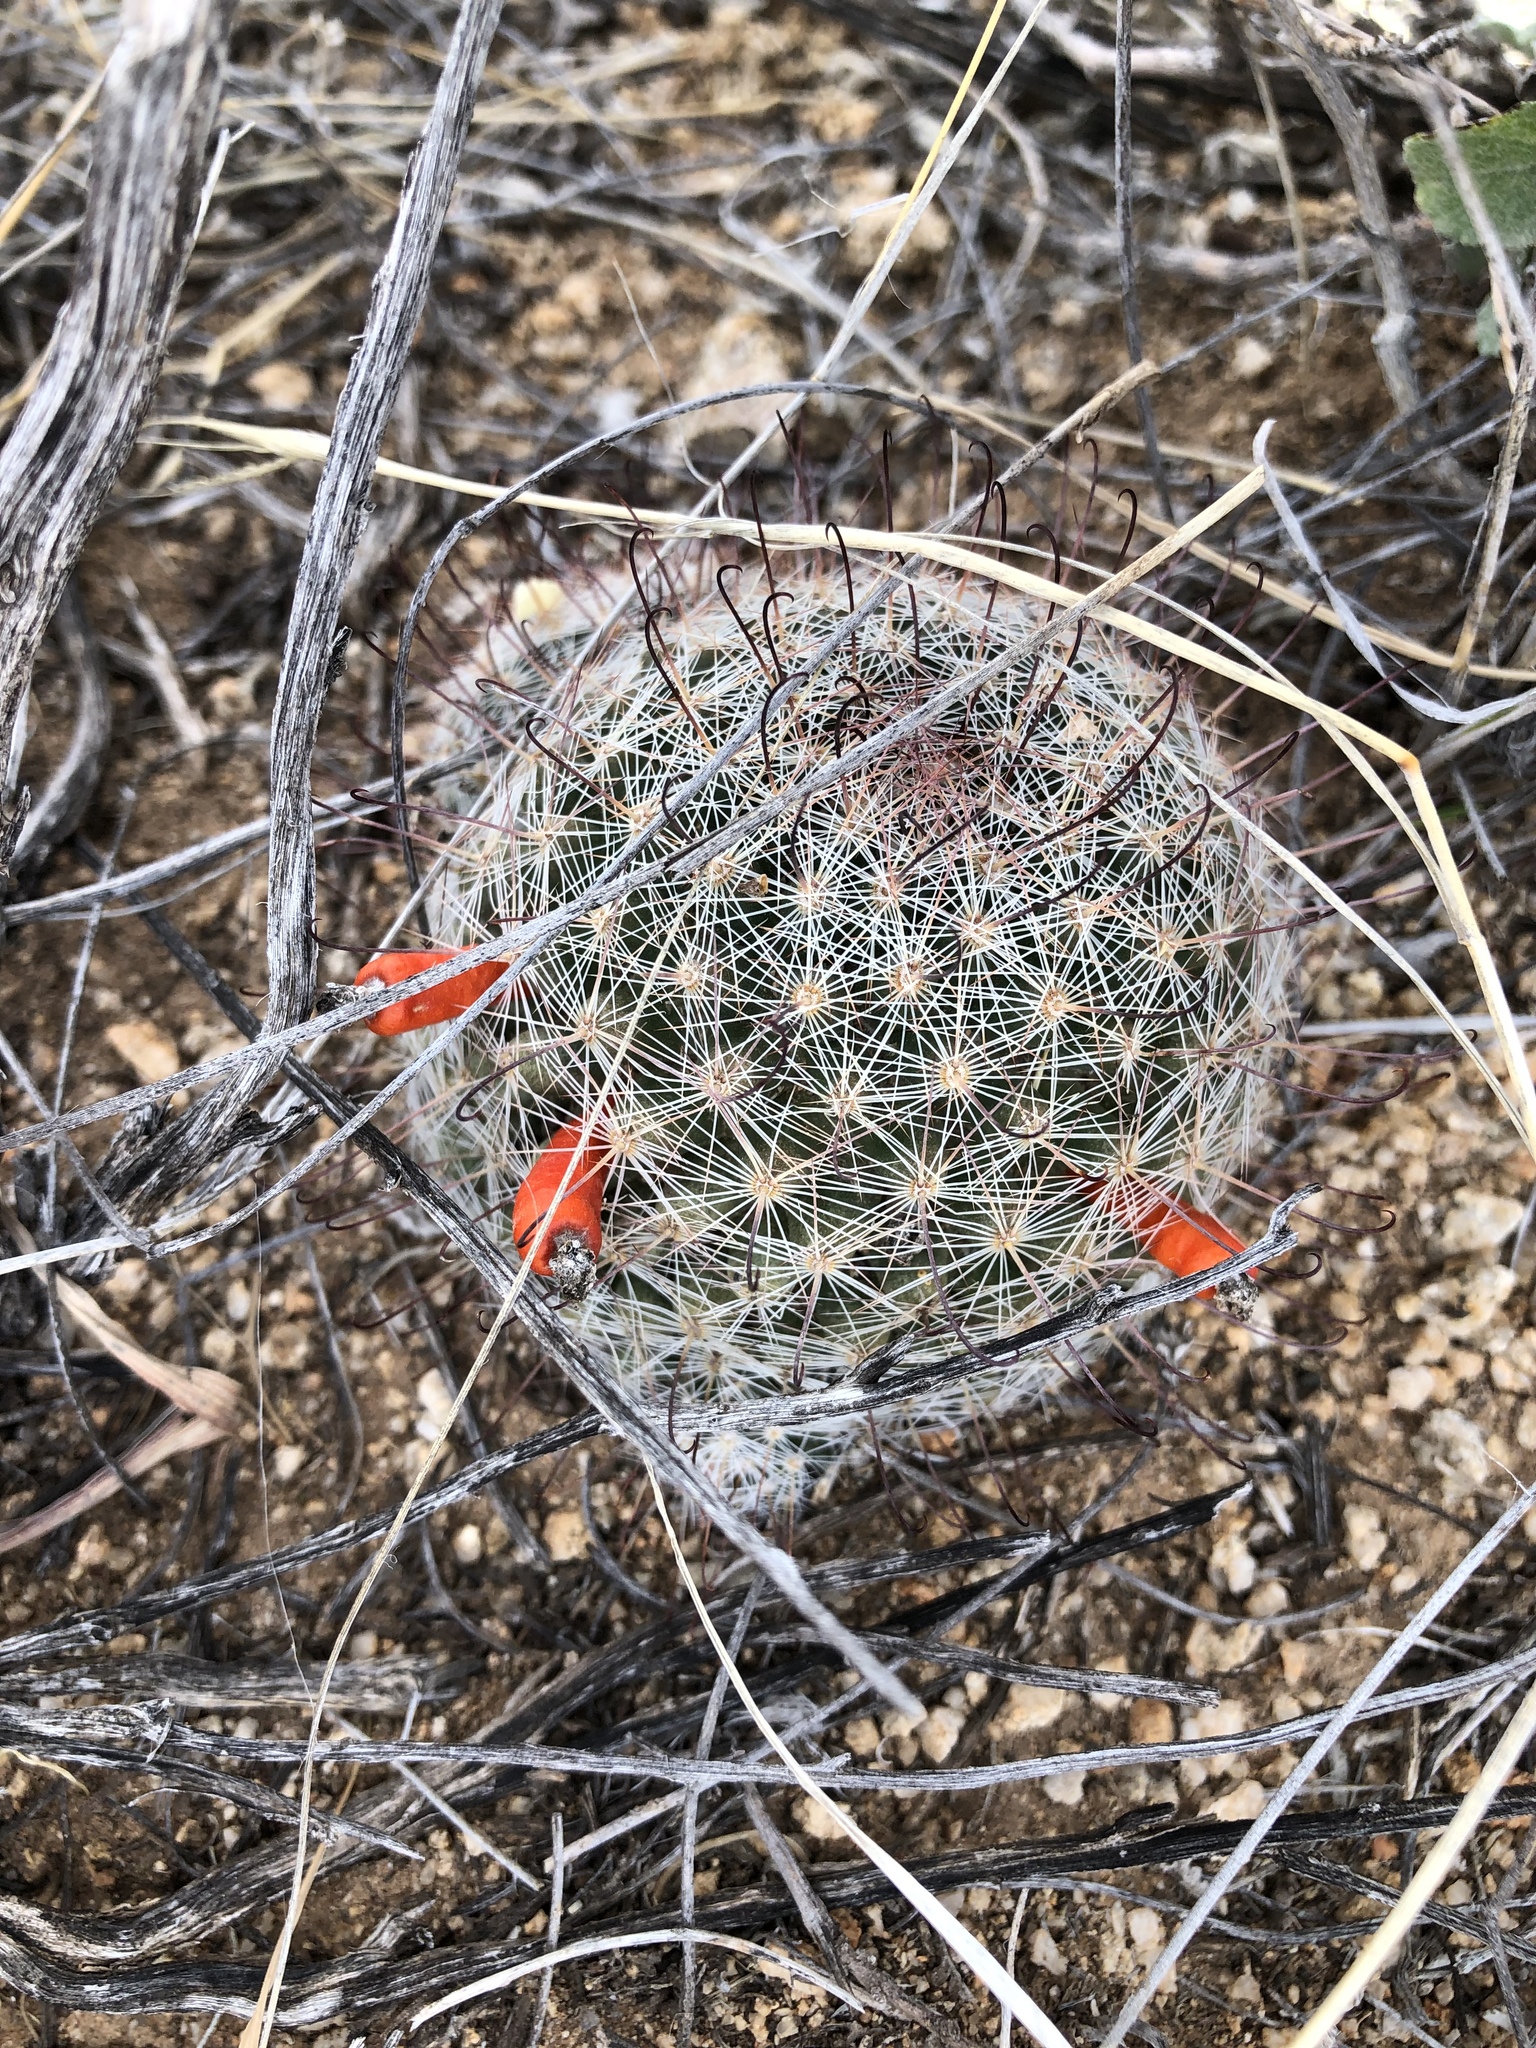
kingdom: Plantae
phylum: Tracheophyta
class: Magnoliopsida
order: Caryophyllales
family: Cactaceae
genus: Cochemiea
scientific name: Cochemiea grahamii
